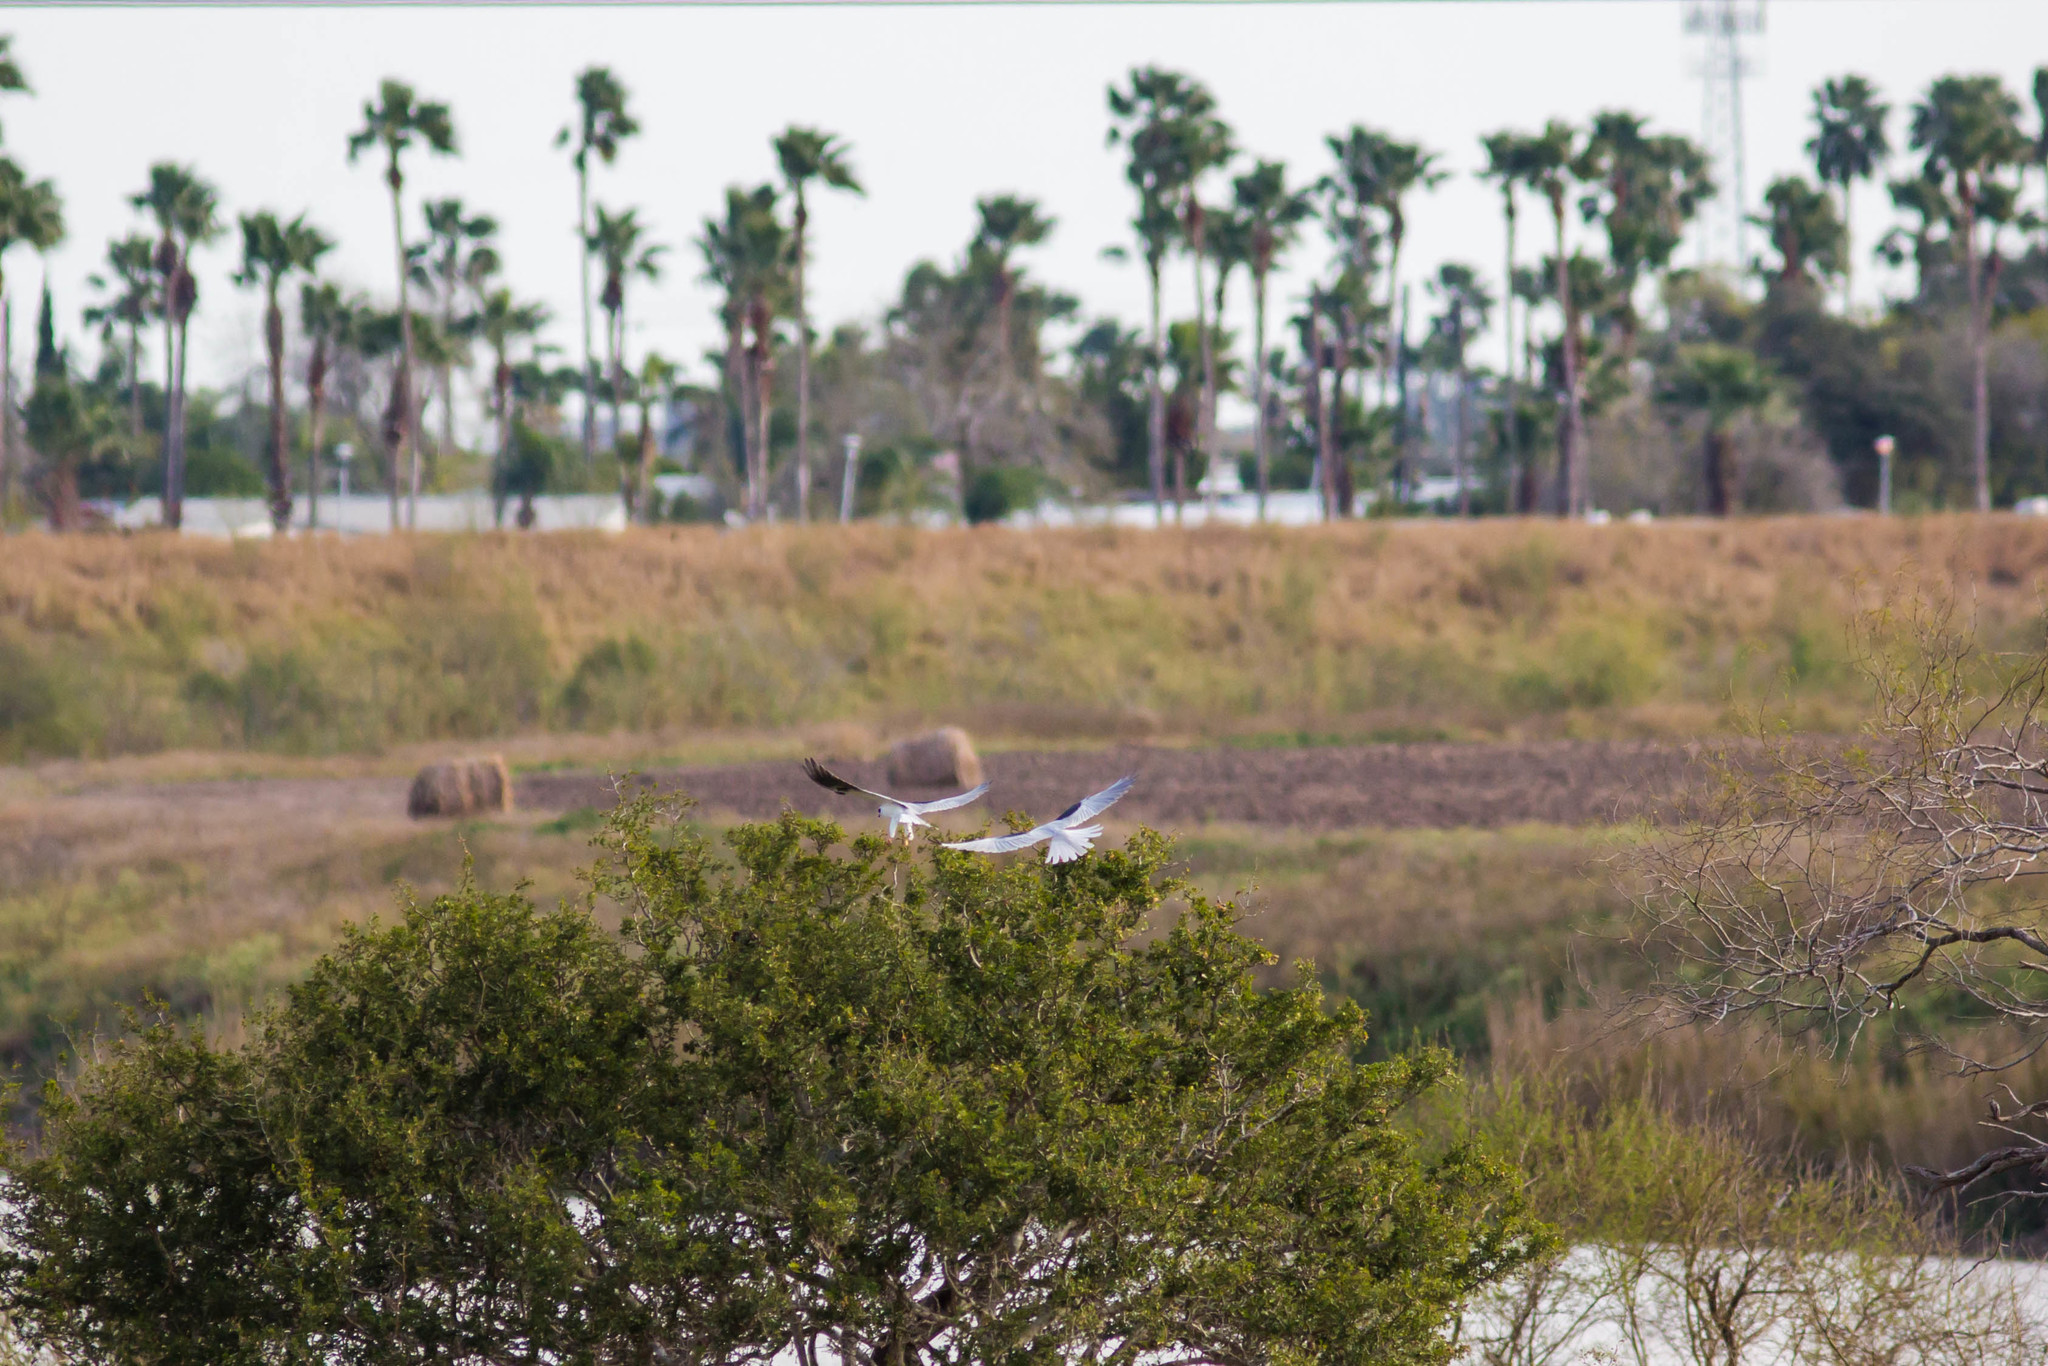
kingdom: Animalia
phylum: Chordata
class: Aves
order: Accipitriformes
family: Accipitridae
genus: Elanus
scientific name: Elanus leucurus
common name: White-tailed kite
